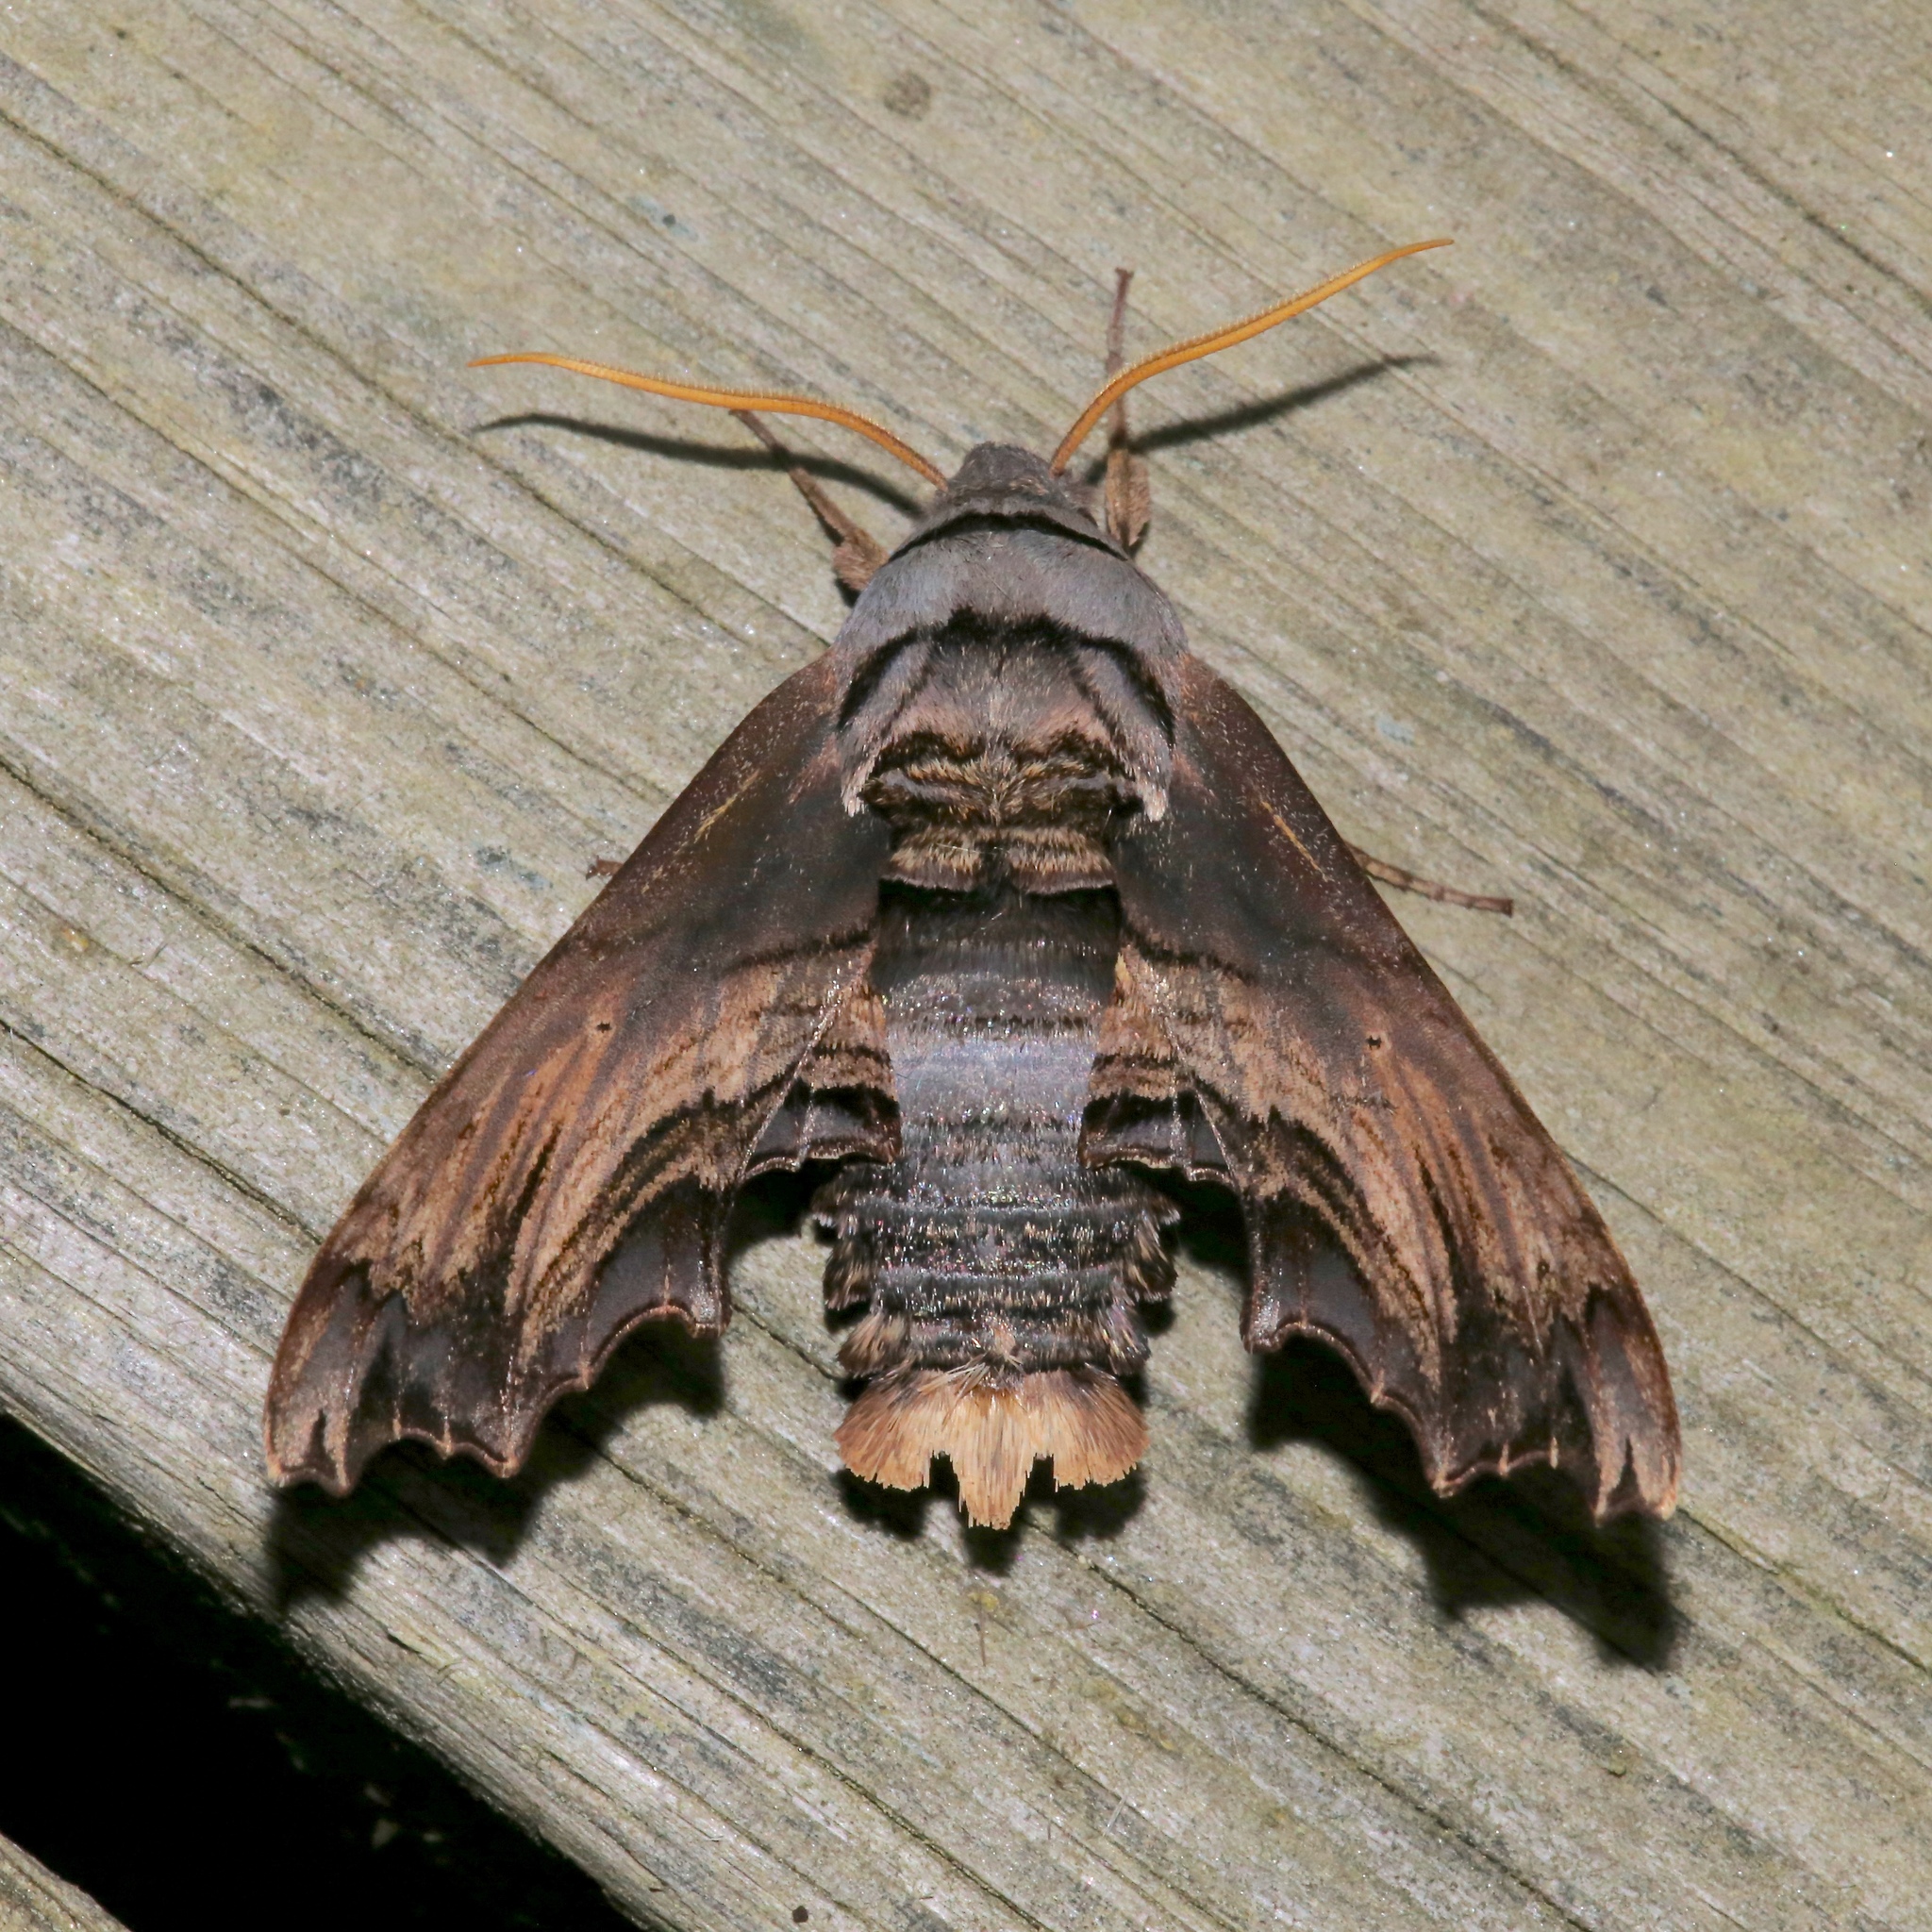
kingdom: Animalia
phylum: Arthropoda
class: Insecta
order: Lepidoptera
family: Sphingidae
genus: Sphecodina
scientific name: Sphecodina abbottii
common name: Abbott's sphinx
